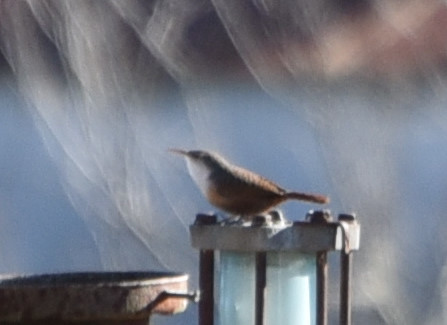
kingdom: Animalia
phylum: Chordata
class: Aves
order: Passeriformes
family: Troglodytidae
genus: Catherpes
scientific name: Catherpes mexicanus
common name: Canyon wren
